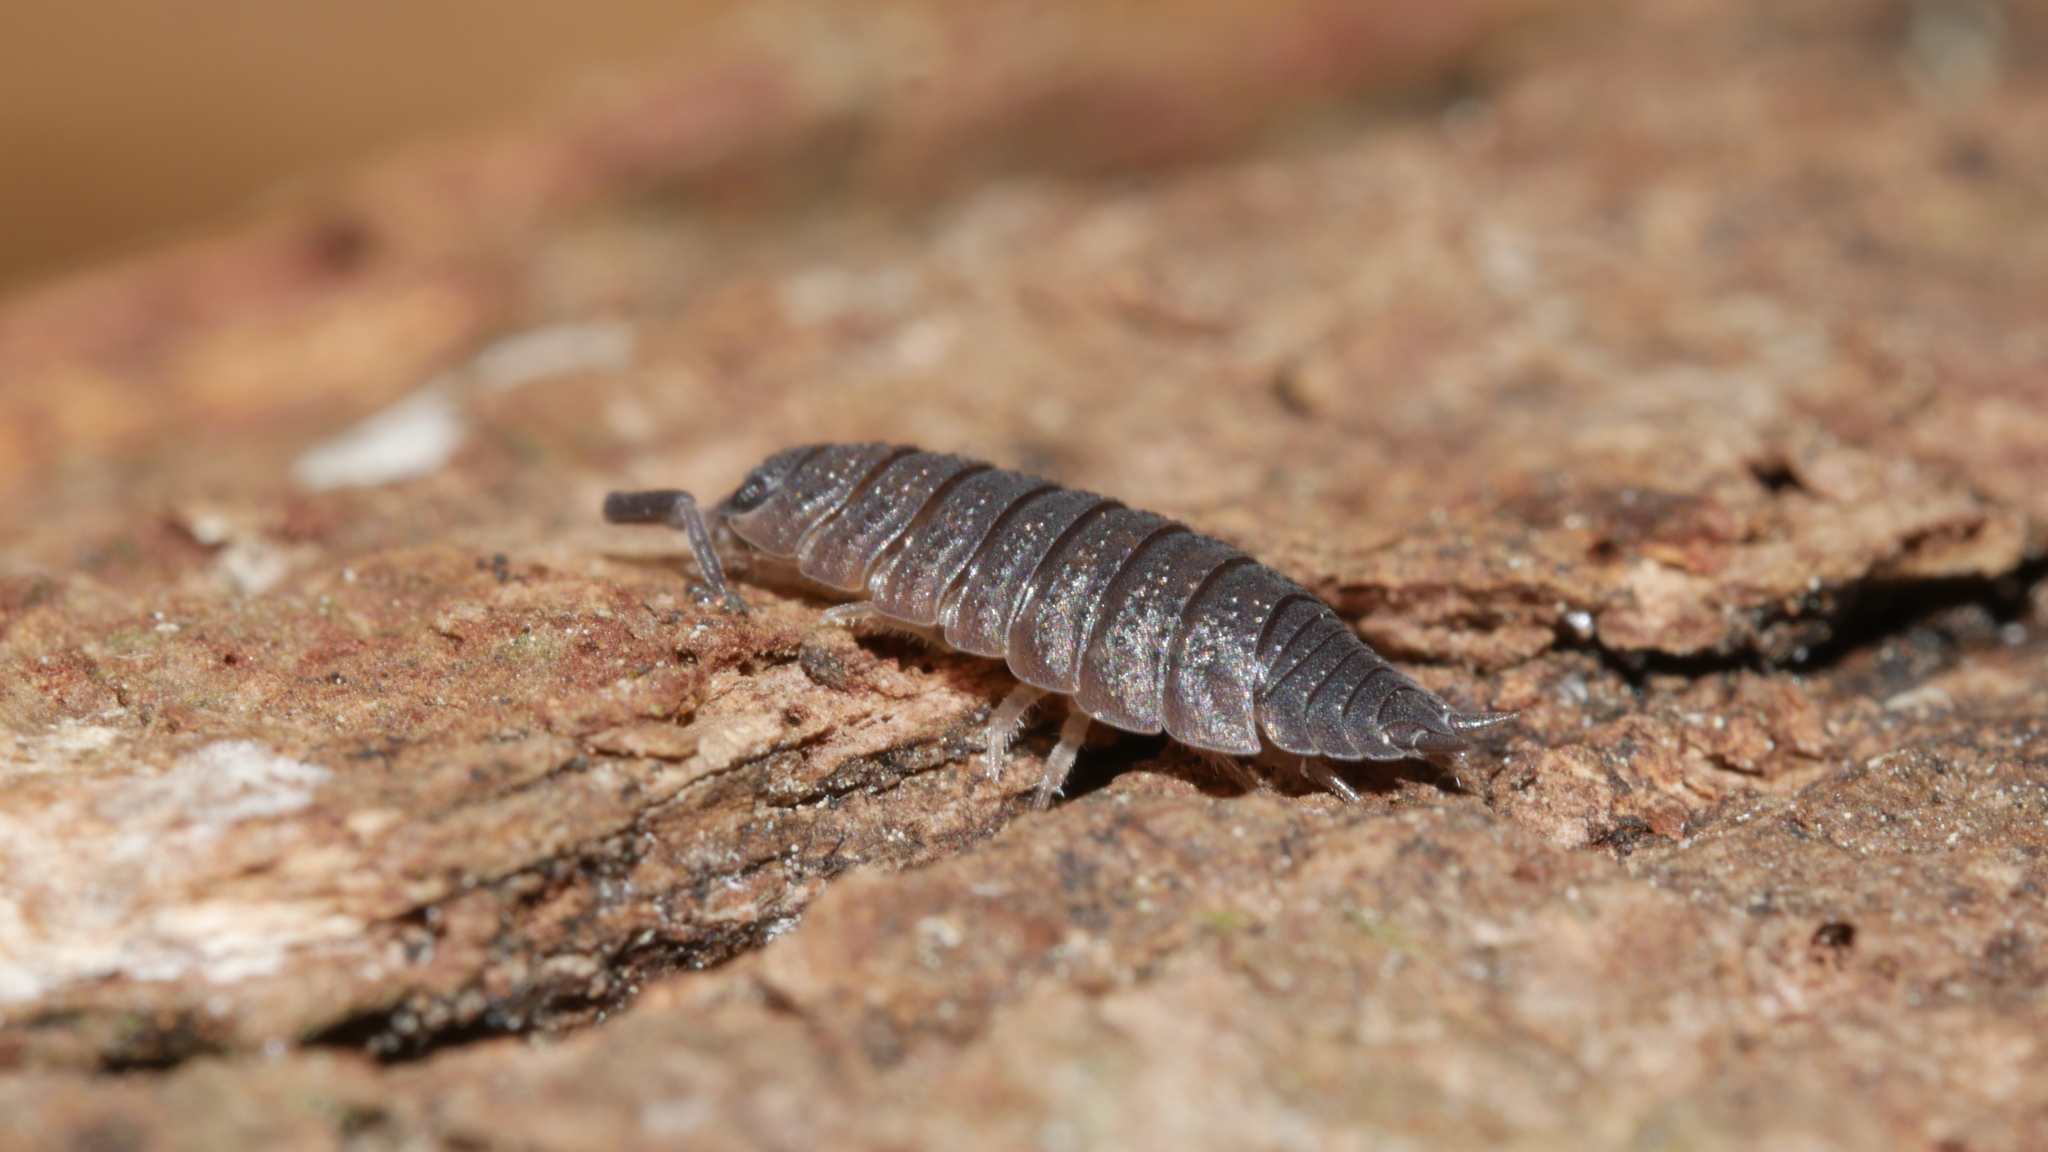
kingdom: Animalia
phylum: Arthropoda
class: Malacostraca
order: Isopoda
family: Porcellionidae
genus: Porcellio
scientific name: Porcellio scaber
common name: Common rough woodlouse
